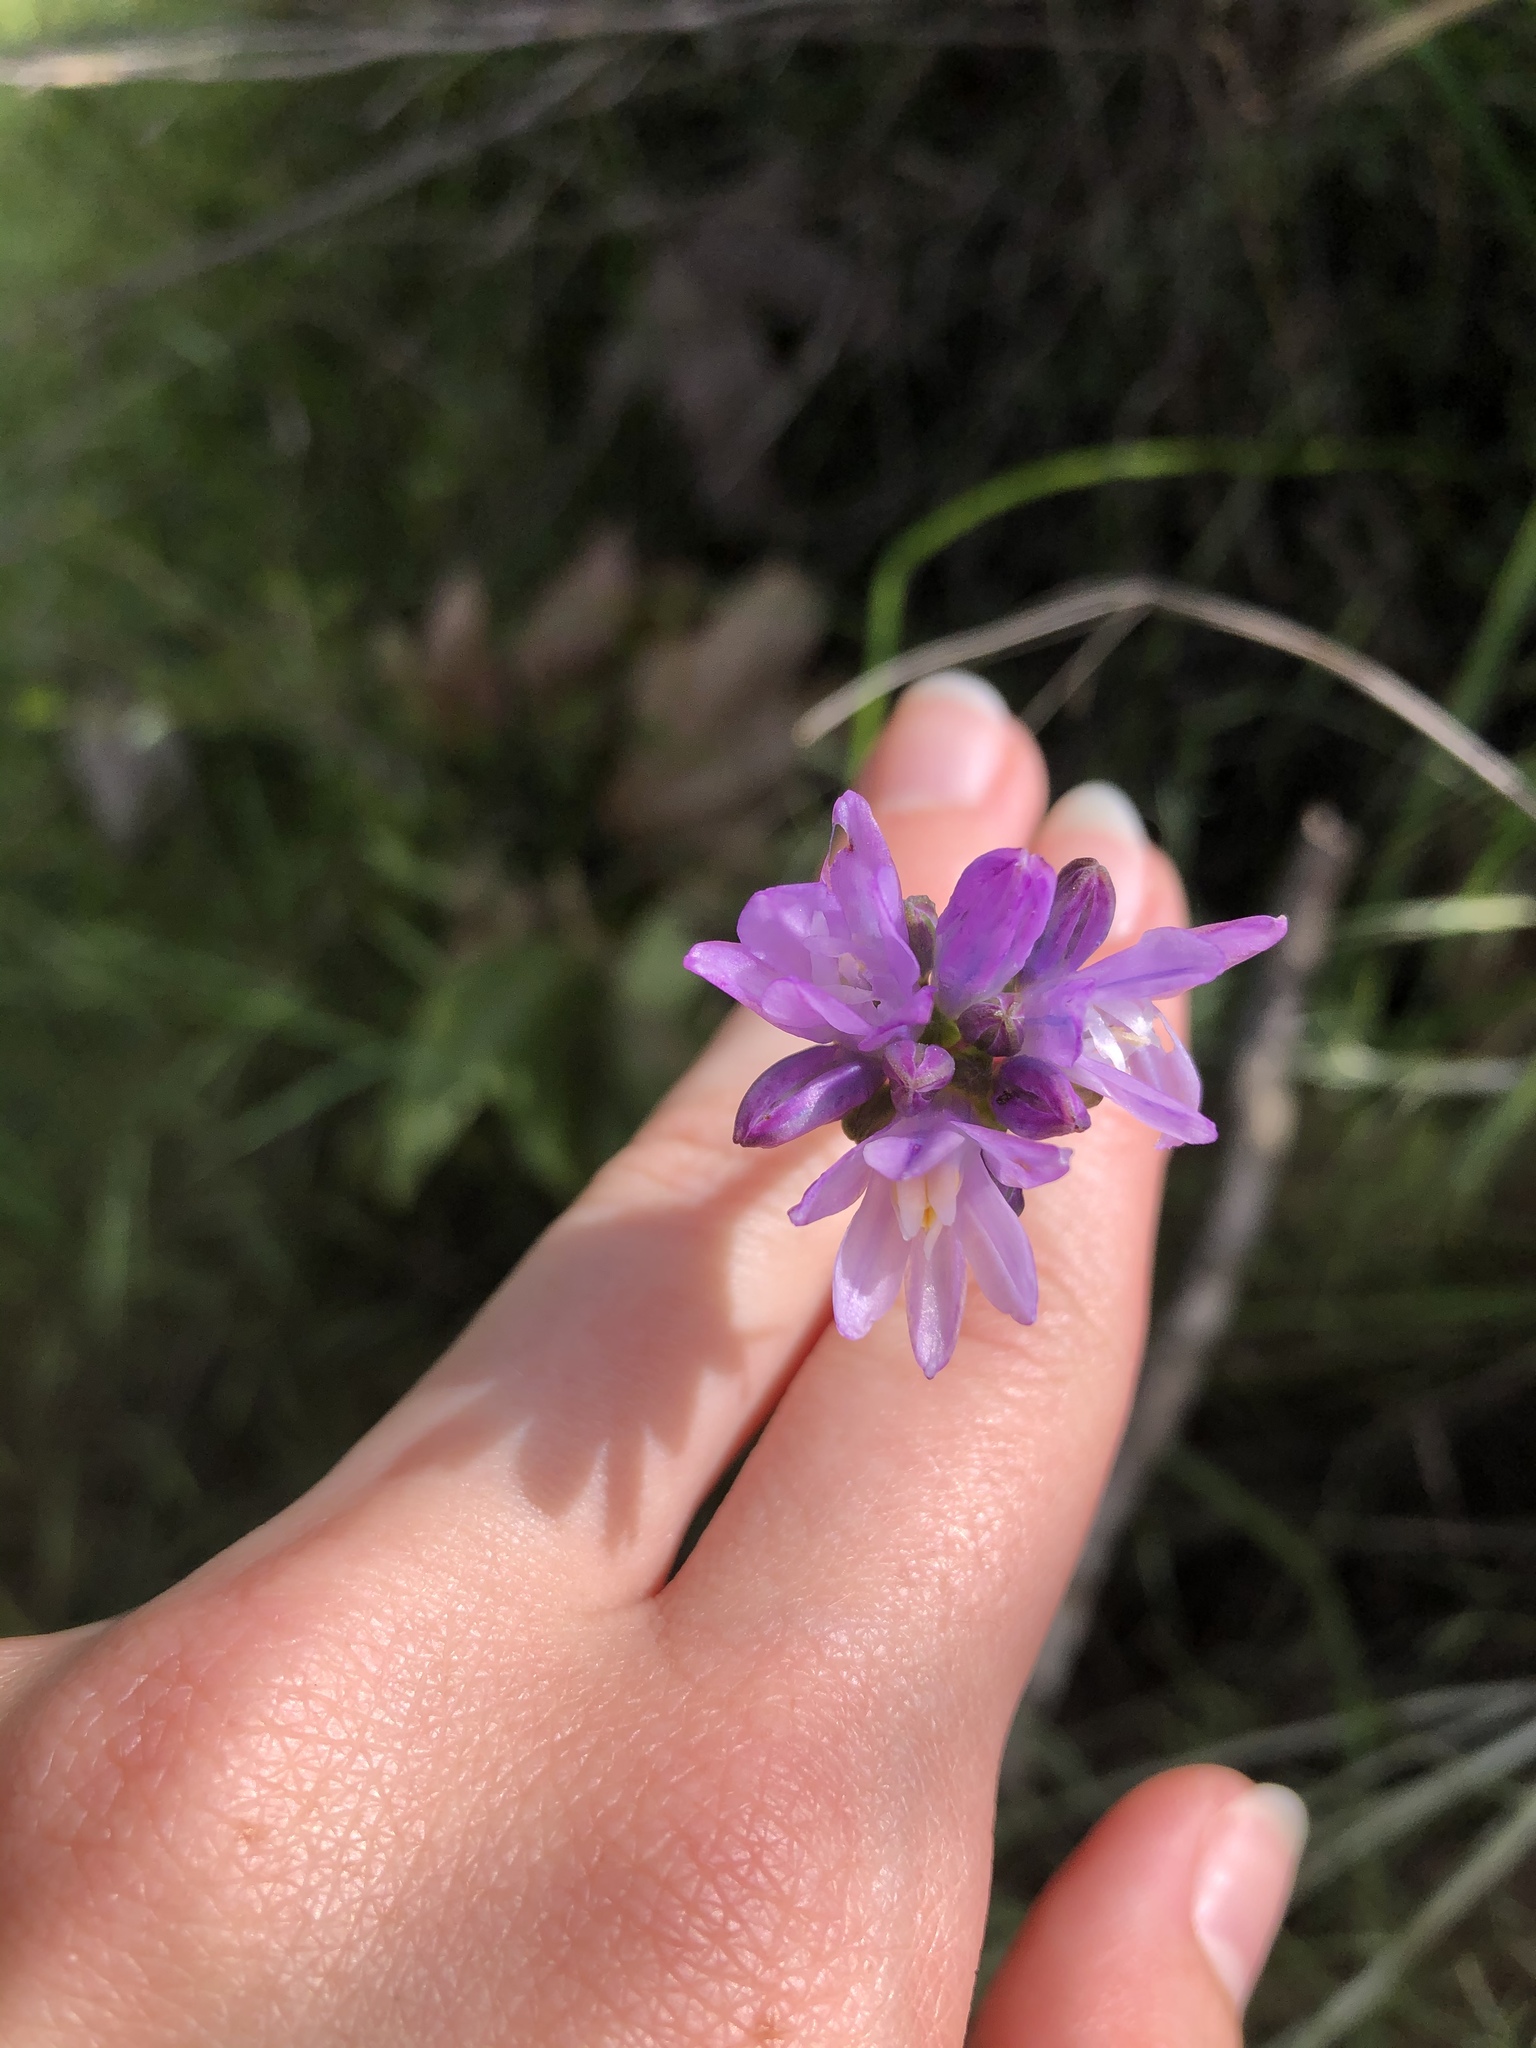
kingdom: Plantae
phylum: Tracheophyta
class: Liliopsida
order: Asparagales
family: Asparagaceae
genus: Dipterostemon
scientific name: Dipterostemon capitatus
